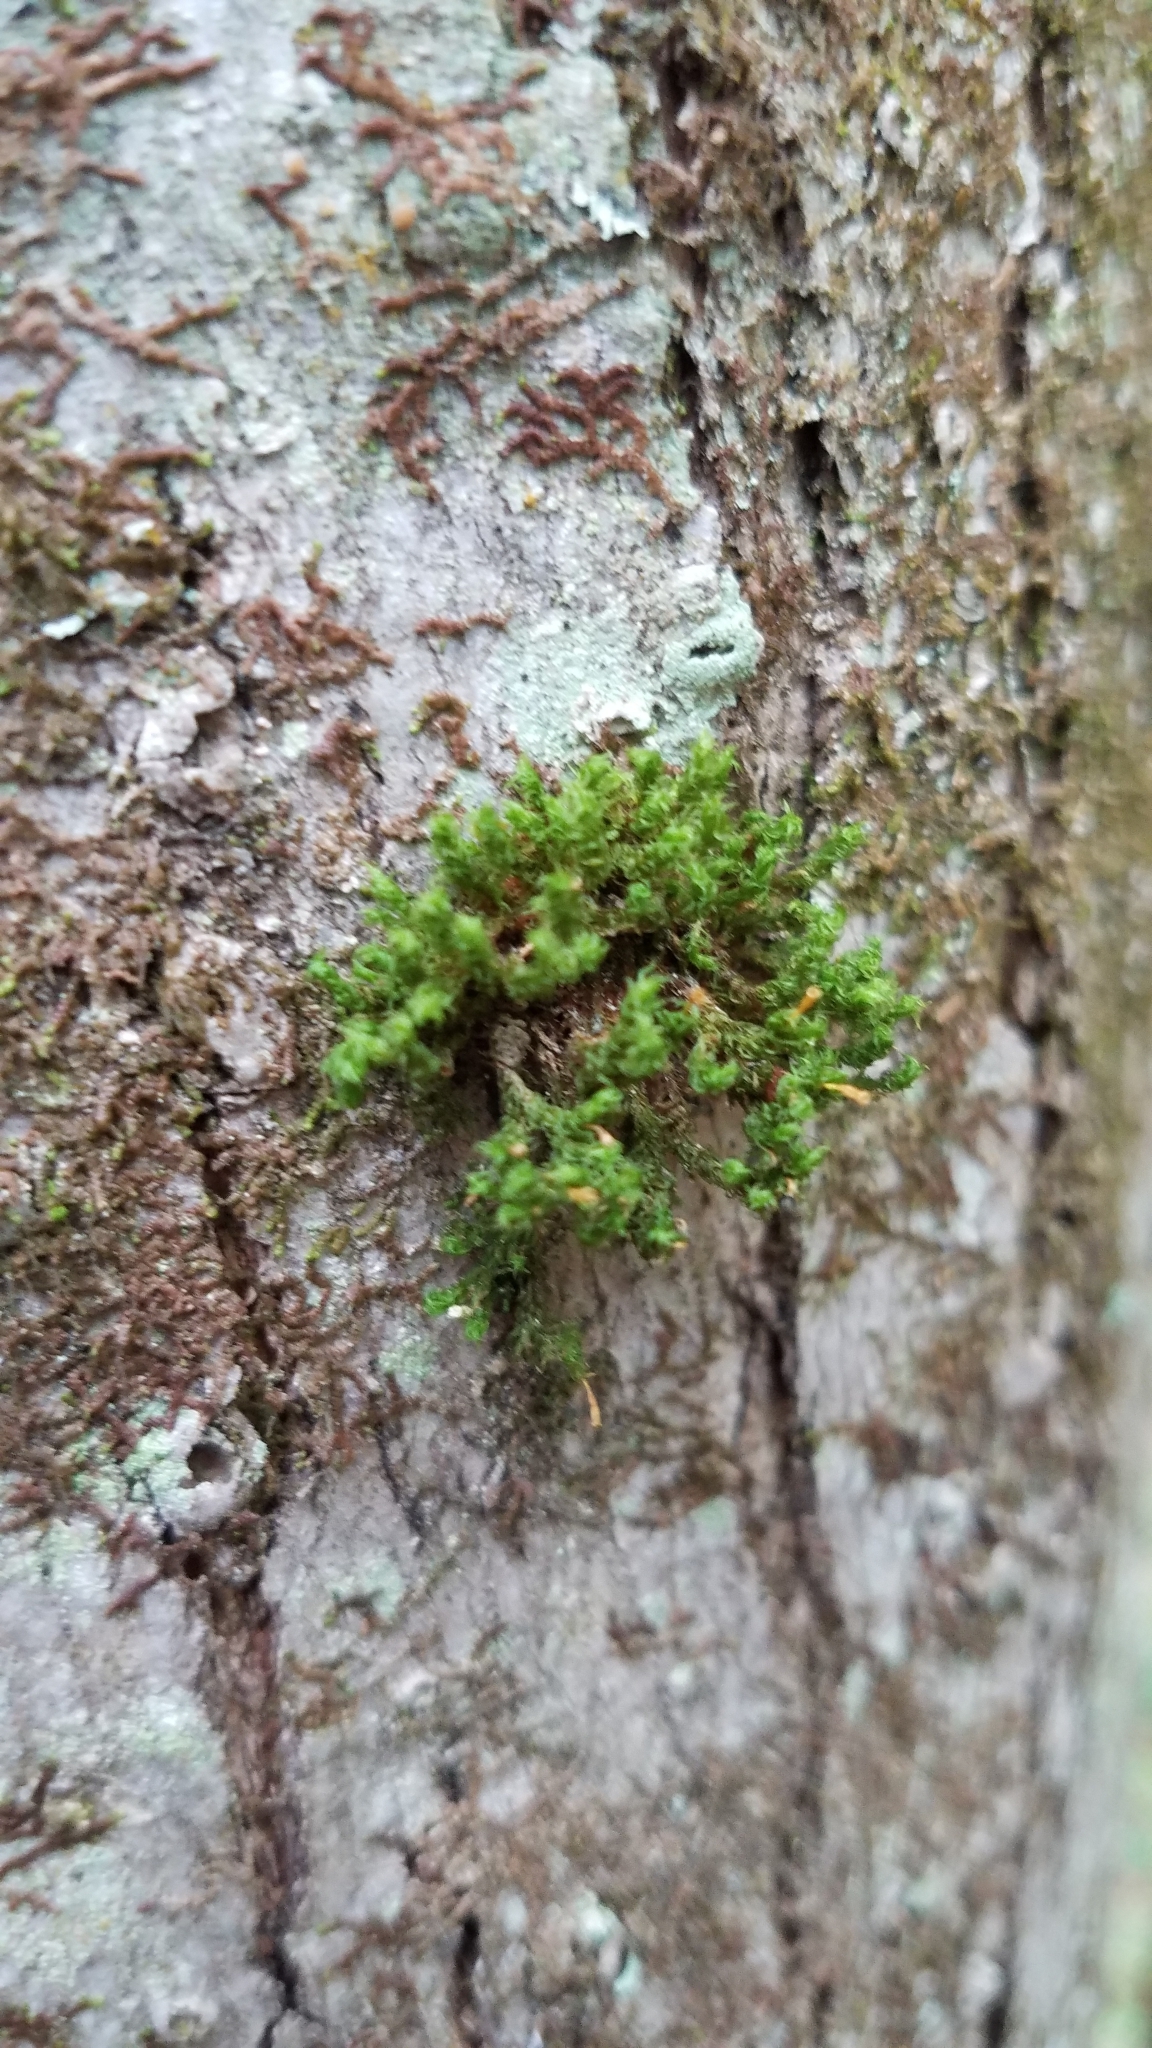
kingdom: Plantae
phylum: Bryophyta
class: Bryopsida
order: Orthotrichales
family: Orthotrichaceae
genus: Ulota
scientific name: Ulota crispa
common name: Crisped pincushion moss
